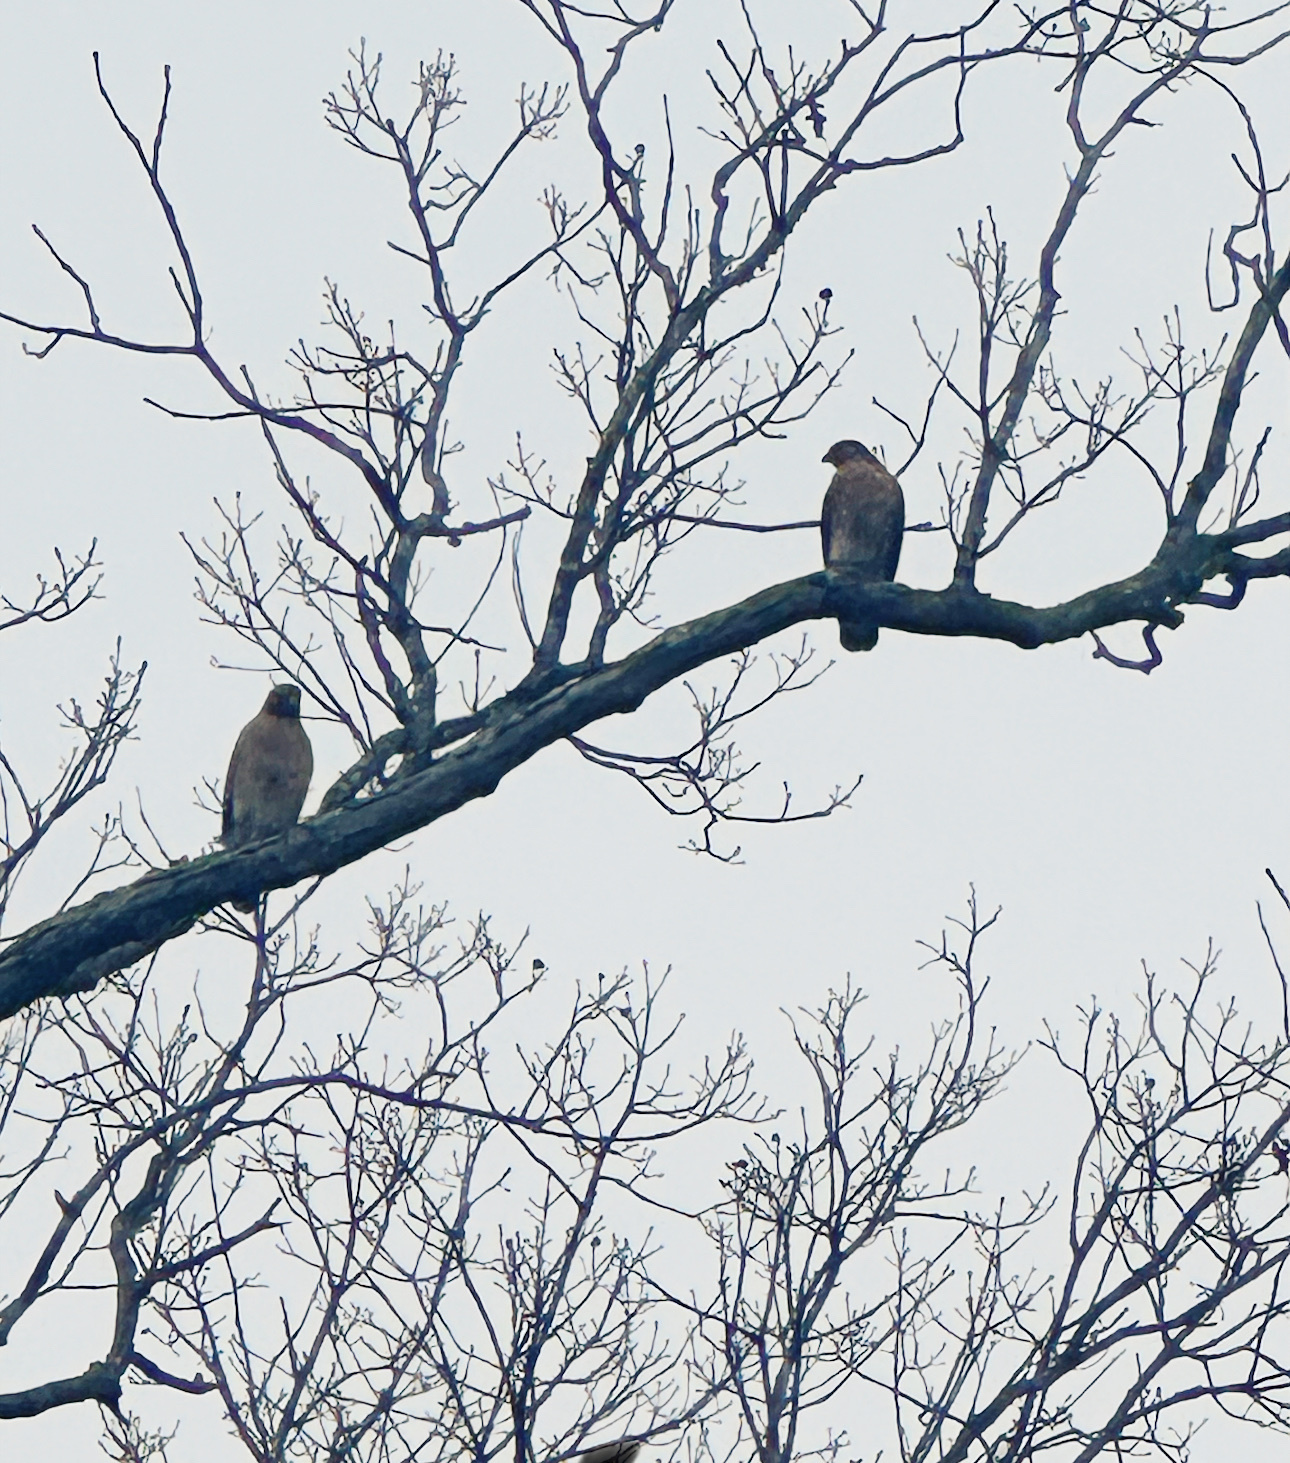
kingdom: Animalia
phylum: Chordata
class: Aves
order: Accipitriformes
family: Accipitridae
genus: Buteo
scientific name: Buteo lineatus
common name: Red-shouldered hawk
